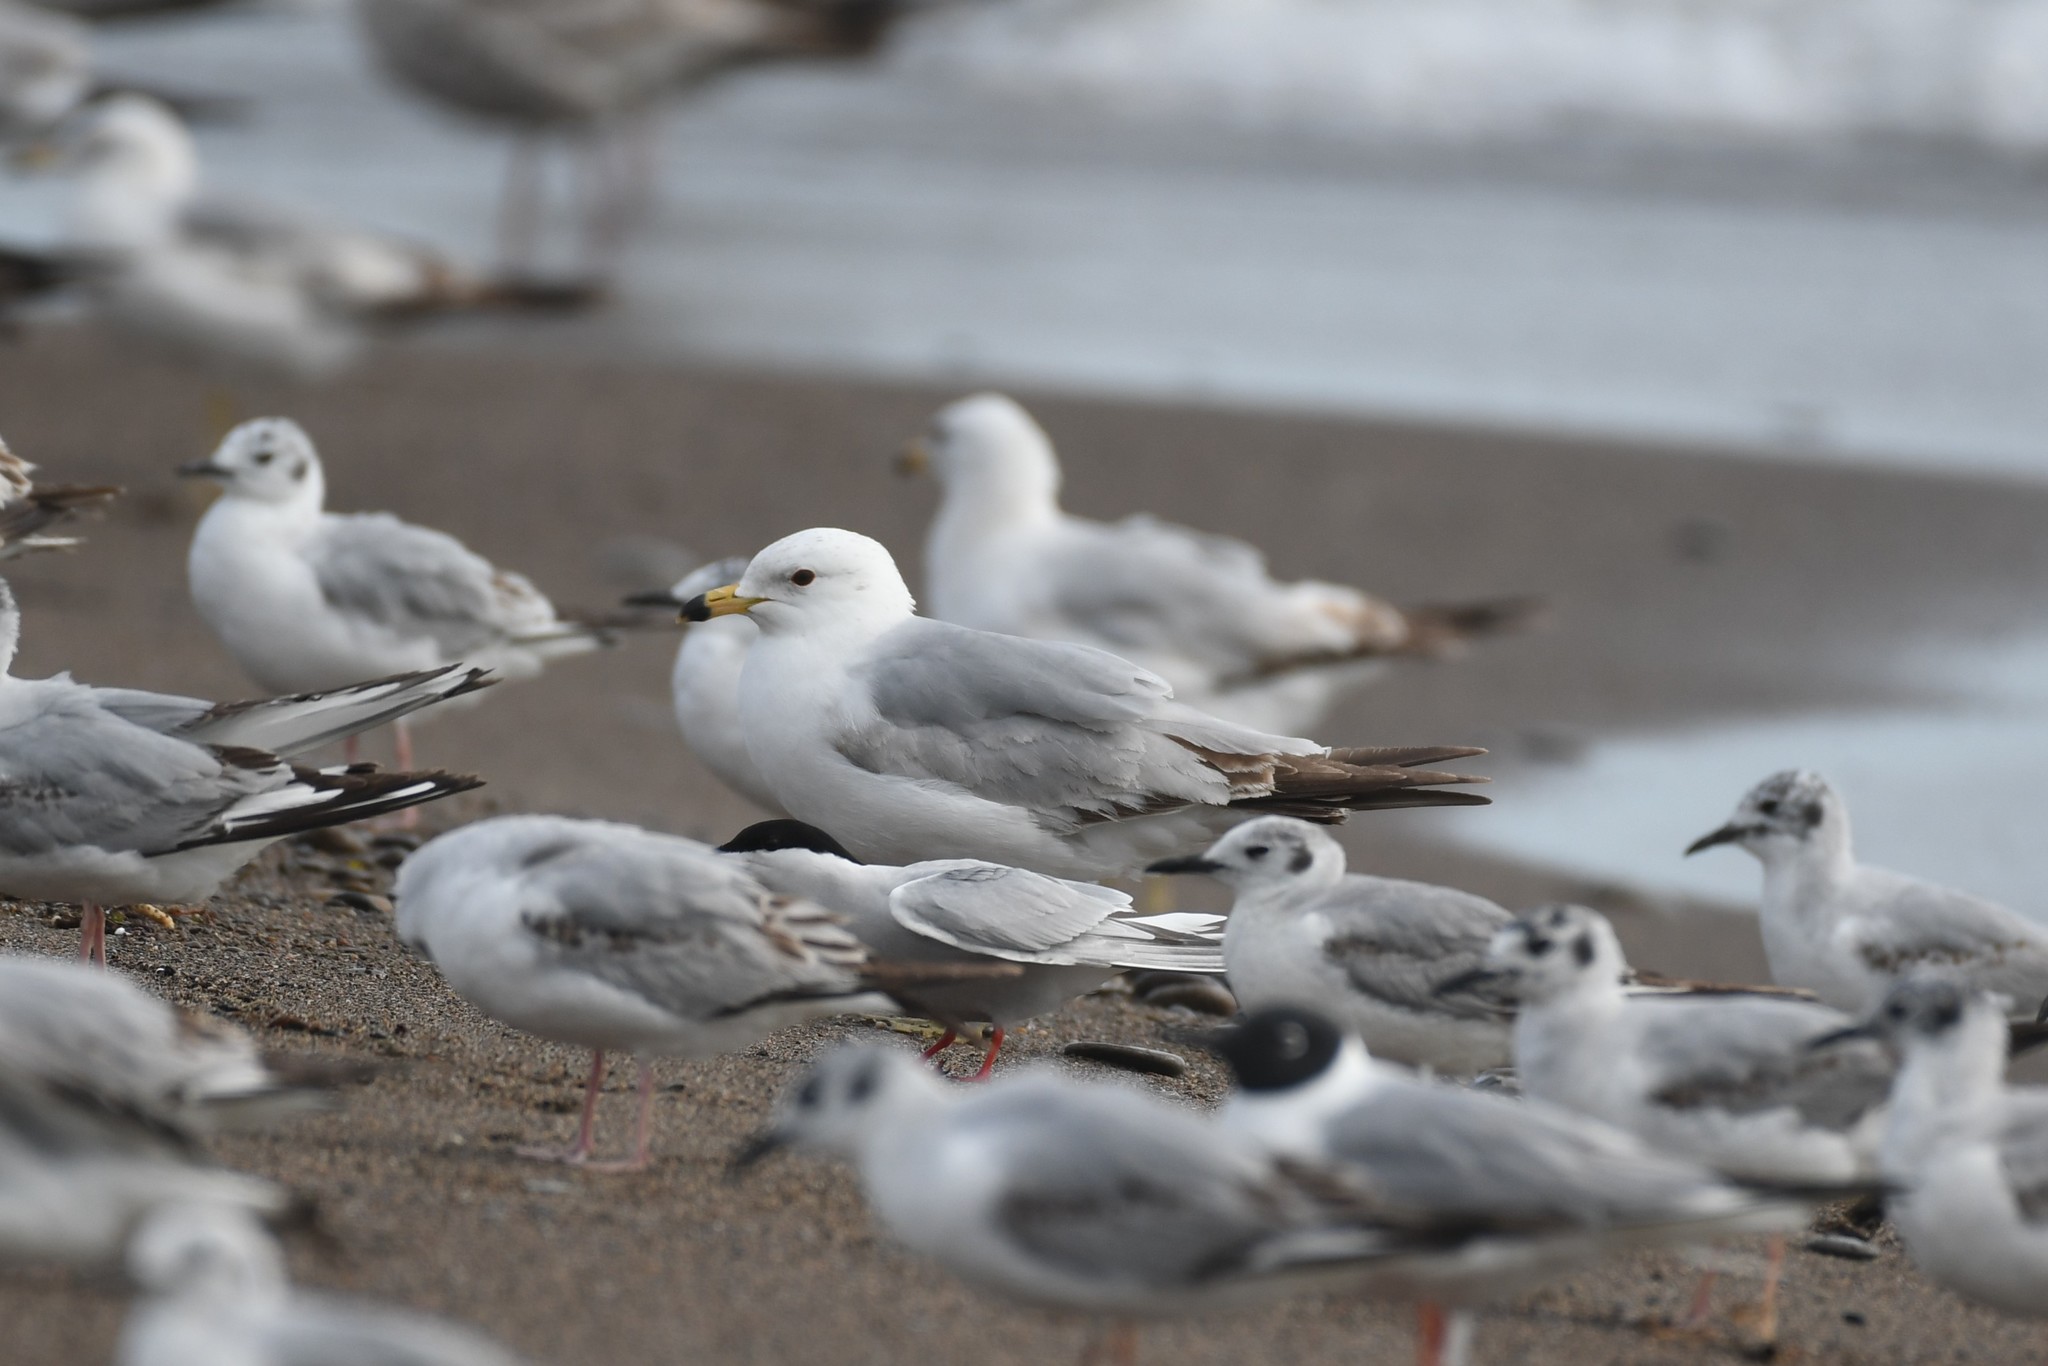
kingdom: Animalia
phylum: Chordata
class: Aves
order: Charadriiformes
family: Laridae
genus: Larus
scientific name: Larus delawarensis
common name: Ring-billed gull
